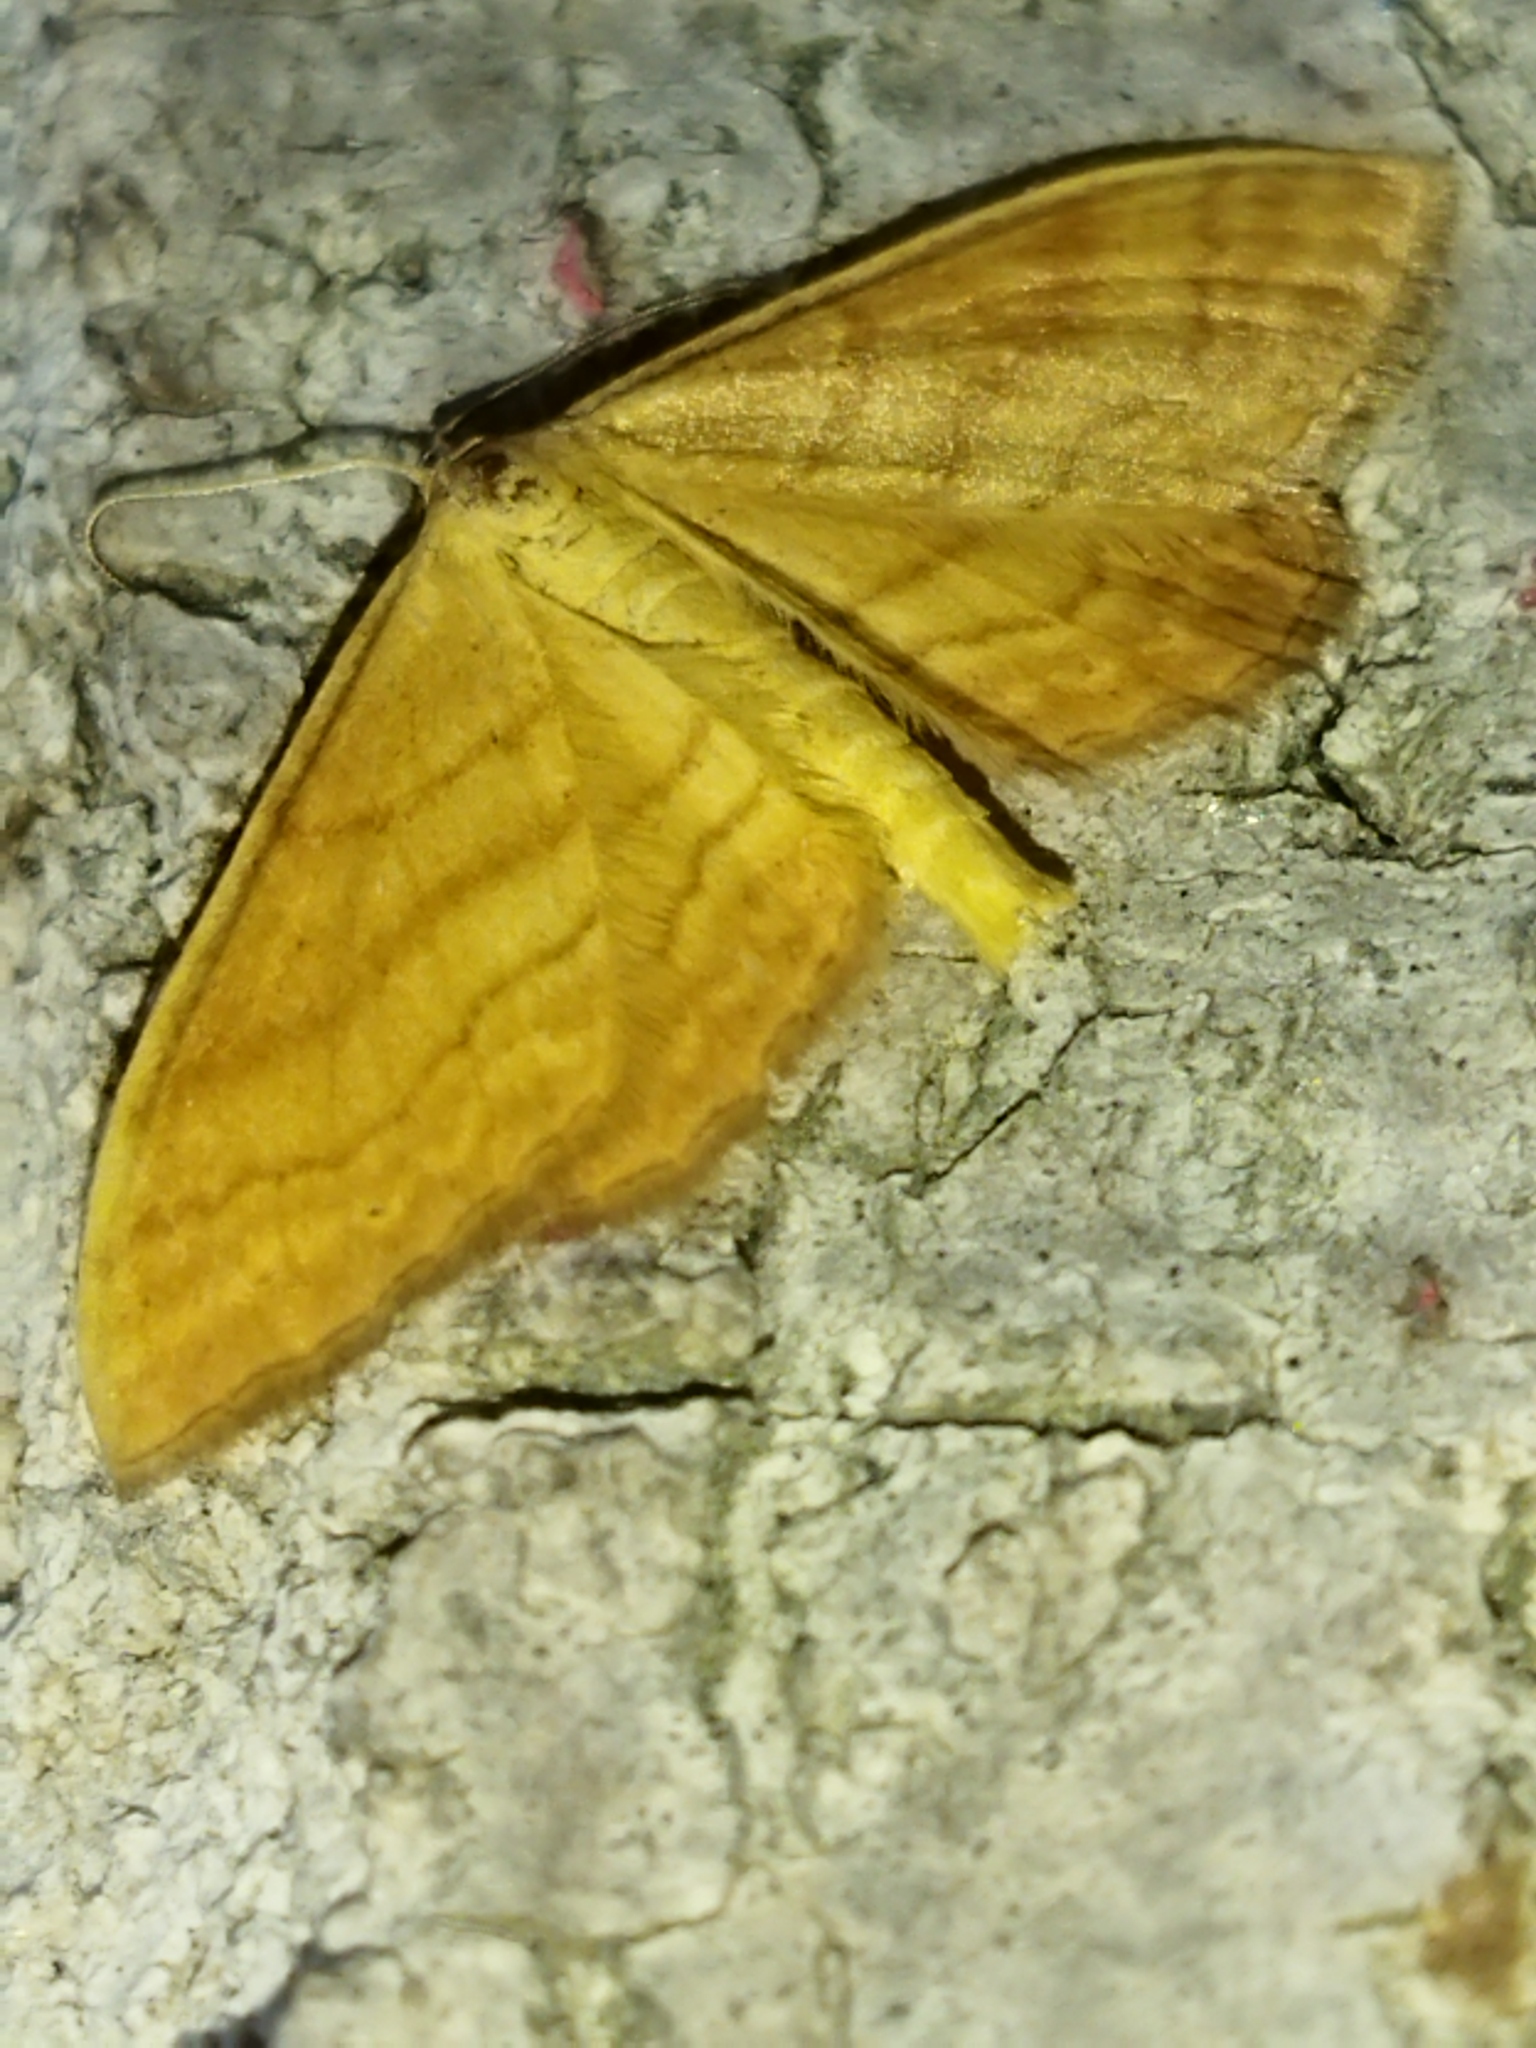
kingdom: Animalia
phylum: Arthropoda
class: Insecta
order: Lepidoptera
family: Geometridae
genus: Idaea
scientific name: Idaea ochrata
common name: Bright wave
